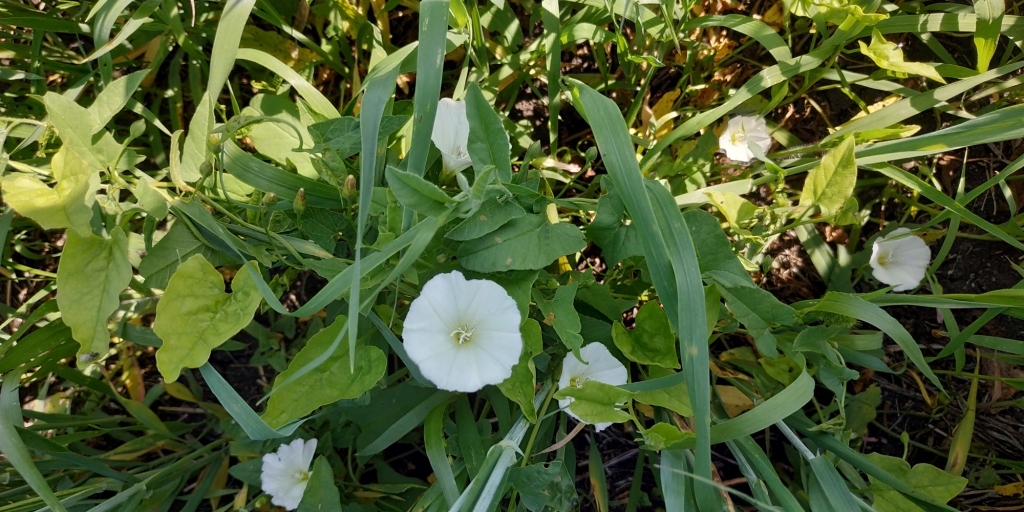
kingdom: Plantae
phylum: Tracheophyta
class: Magnoliopsida
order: Solanales
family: Convolvulaceae
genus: Convolvulus
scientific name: Convolvulus arvensis
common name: Field bindweed
